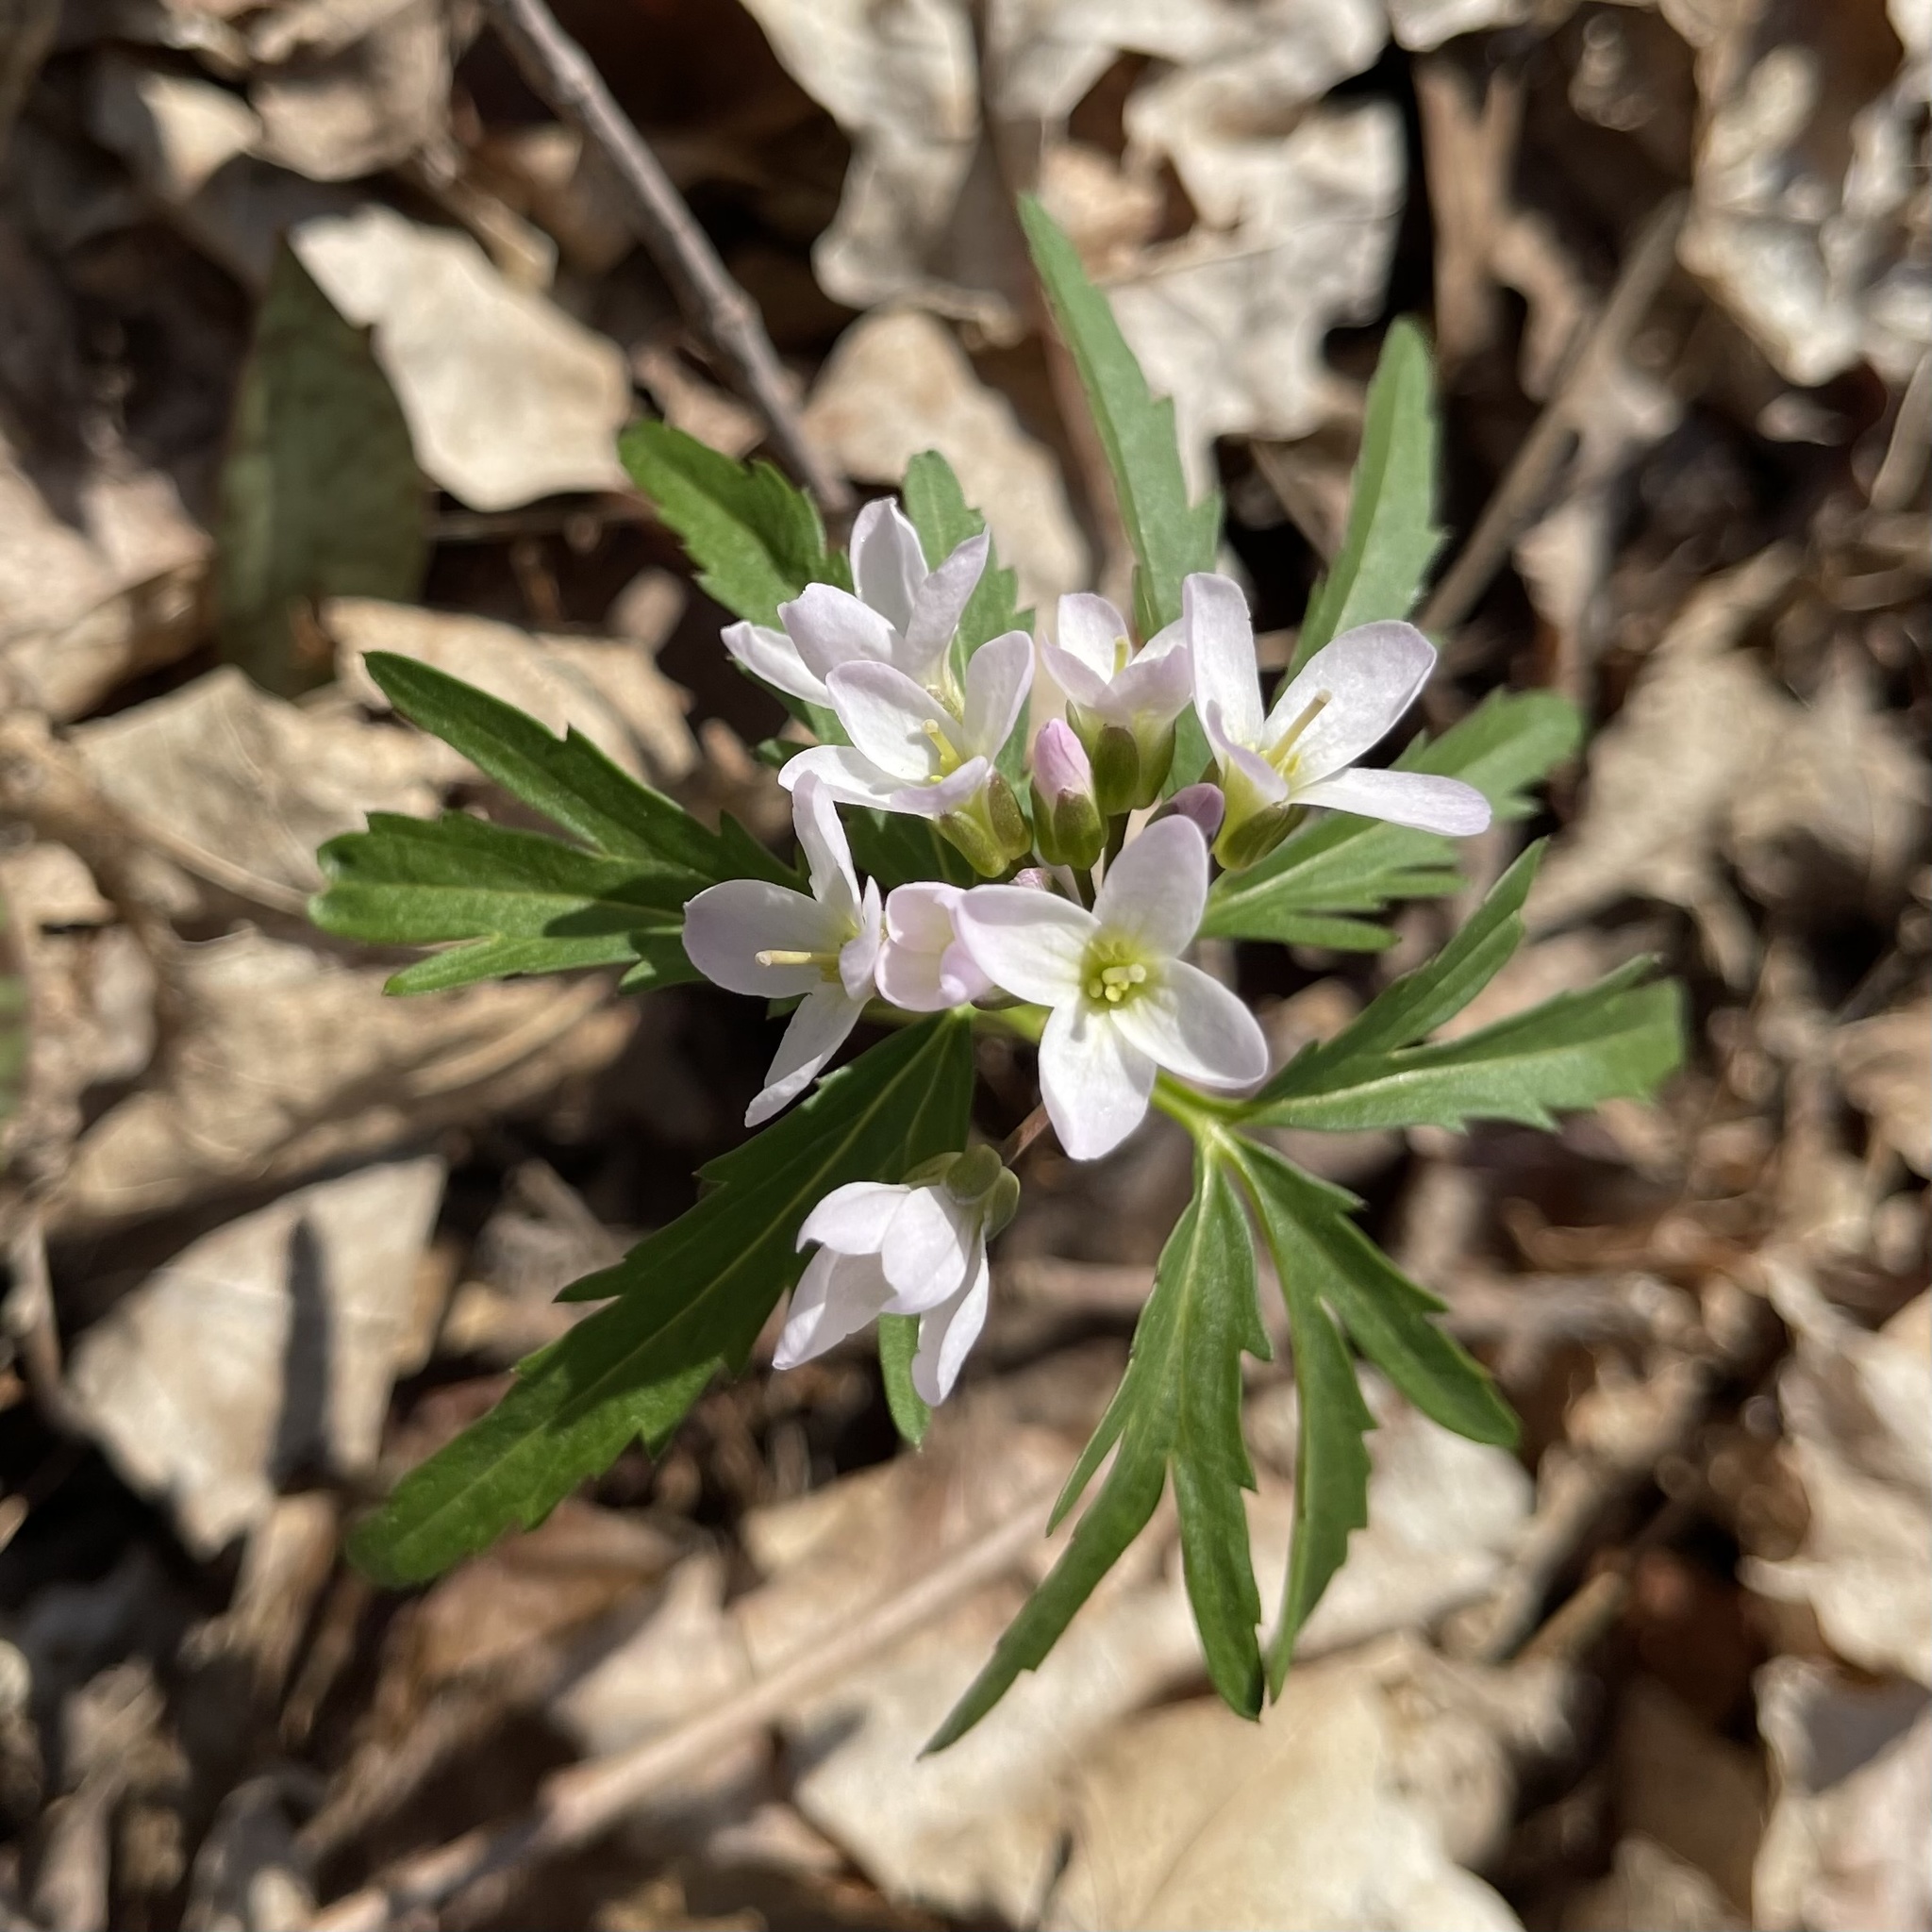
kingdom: Plantae
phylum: Tracheophyta
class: Magnoliopsida
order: Brassicales
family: Brassicaceae
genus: Cardamine
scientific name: Cardamine concatenata
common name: Cut-leaf toothcup
